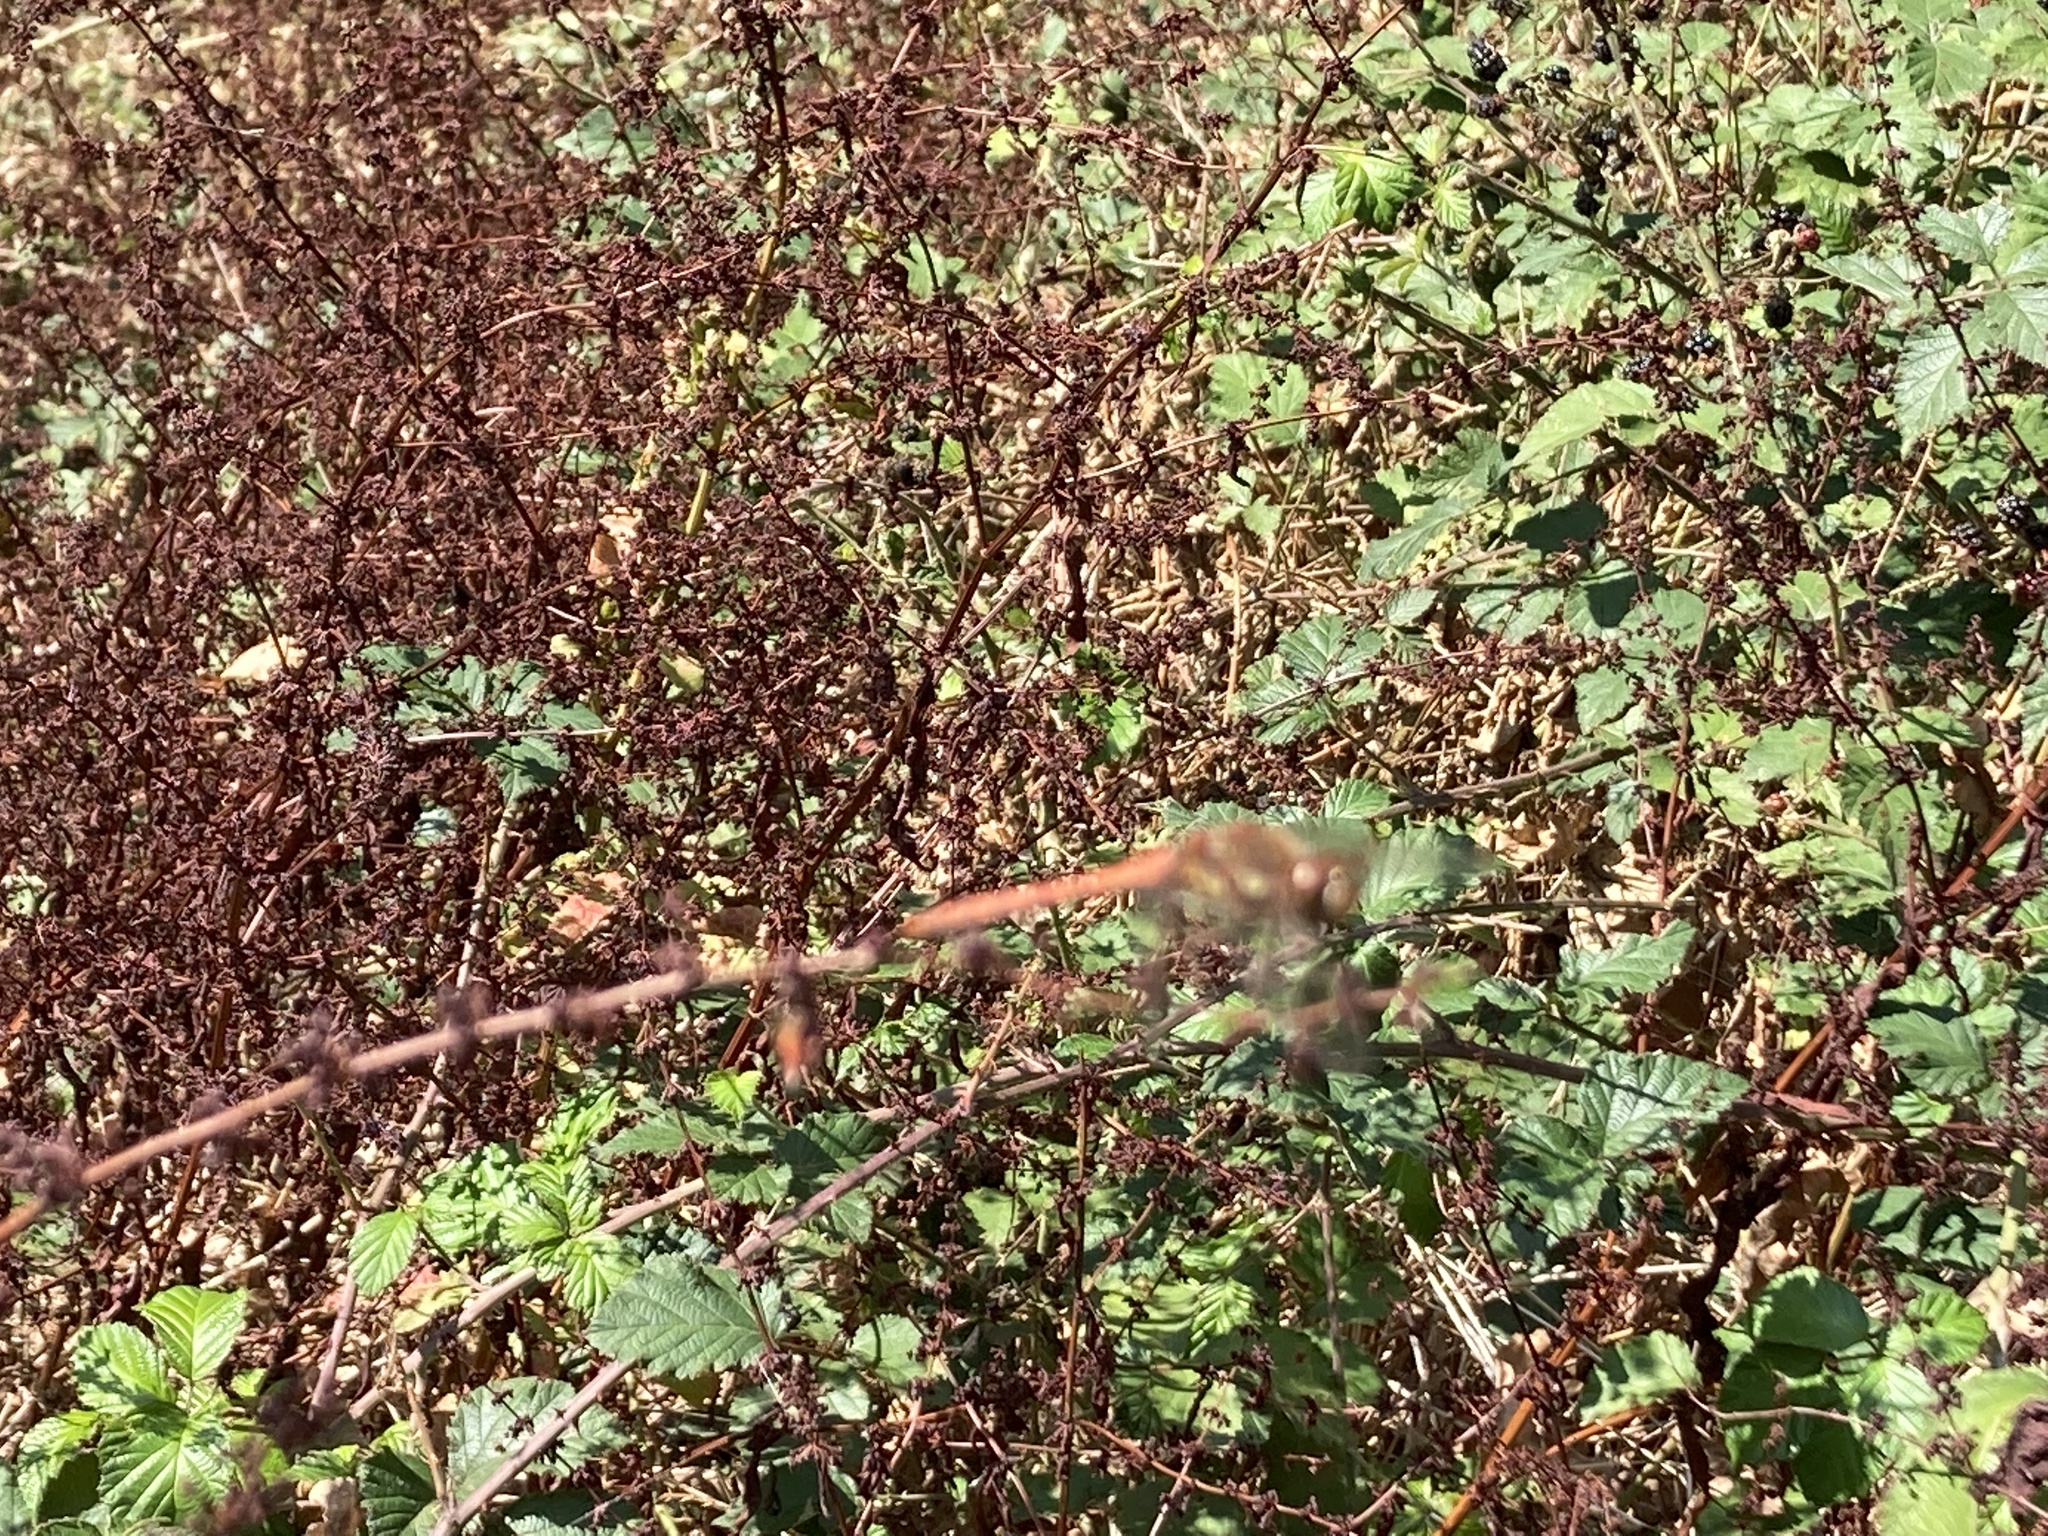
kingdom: Animalia
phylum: Arthropoda
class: Insecta
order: Odonata
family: Libellulidae
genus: Sympetrum
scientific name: Sympetrum striolatum
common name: Common darter
